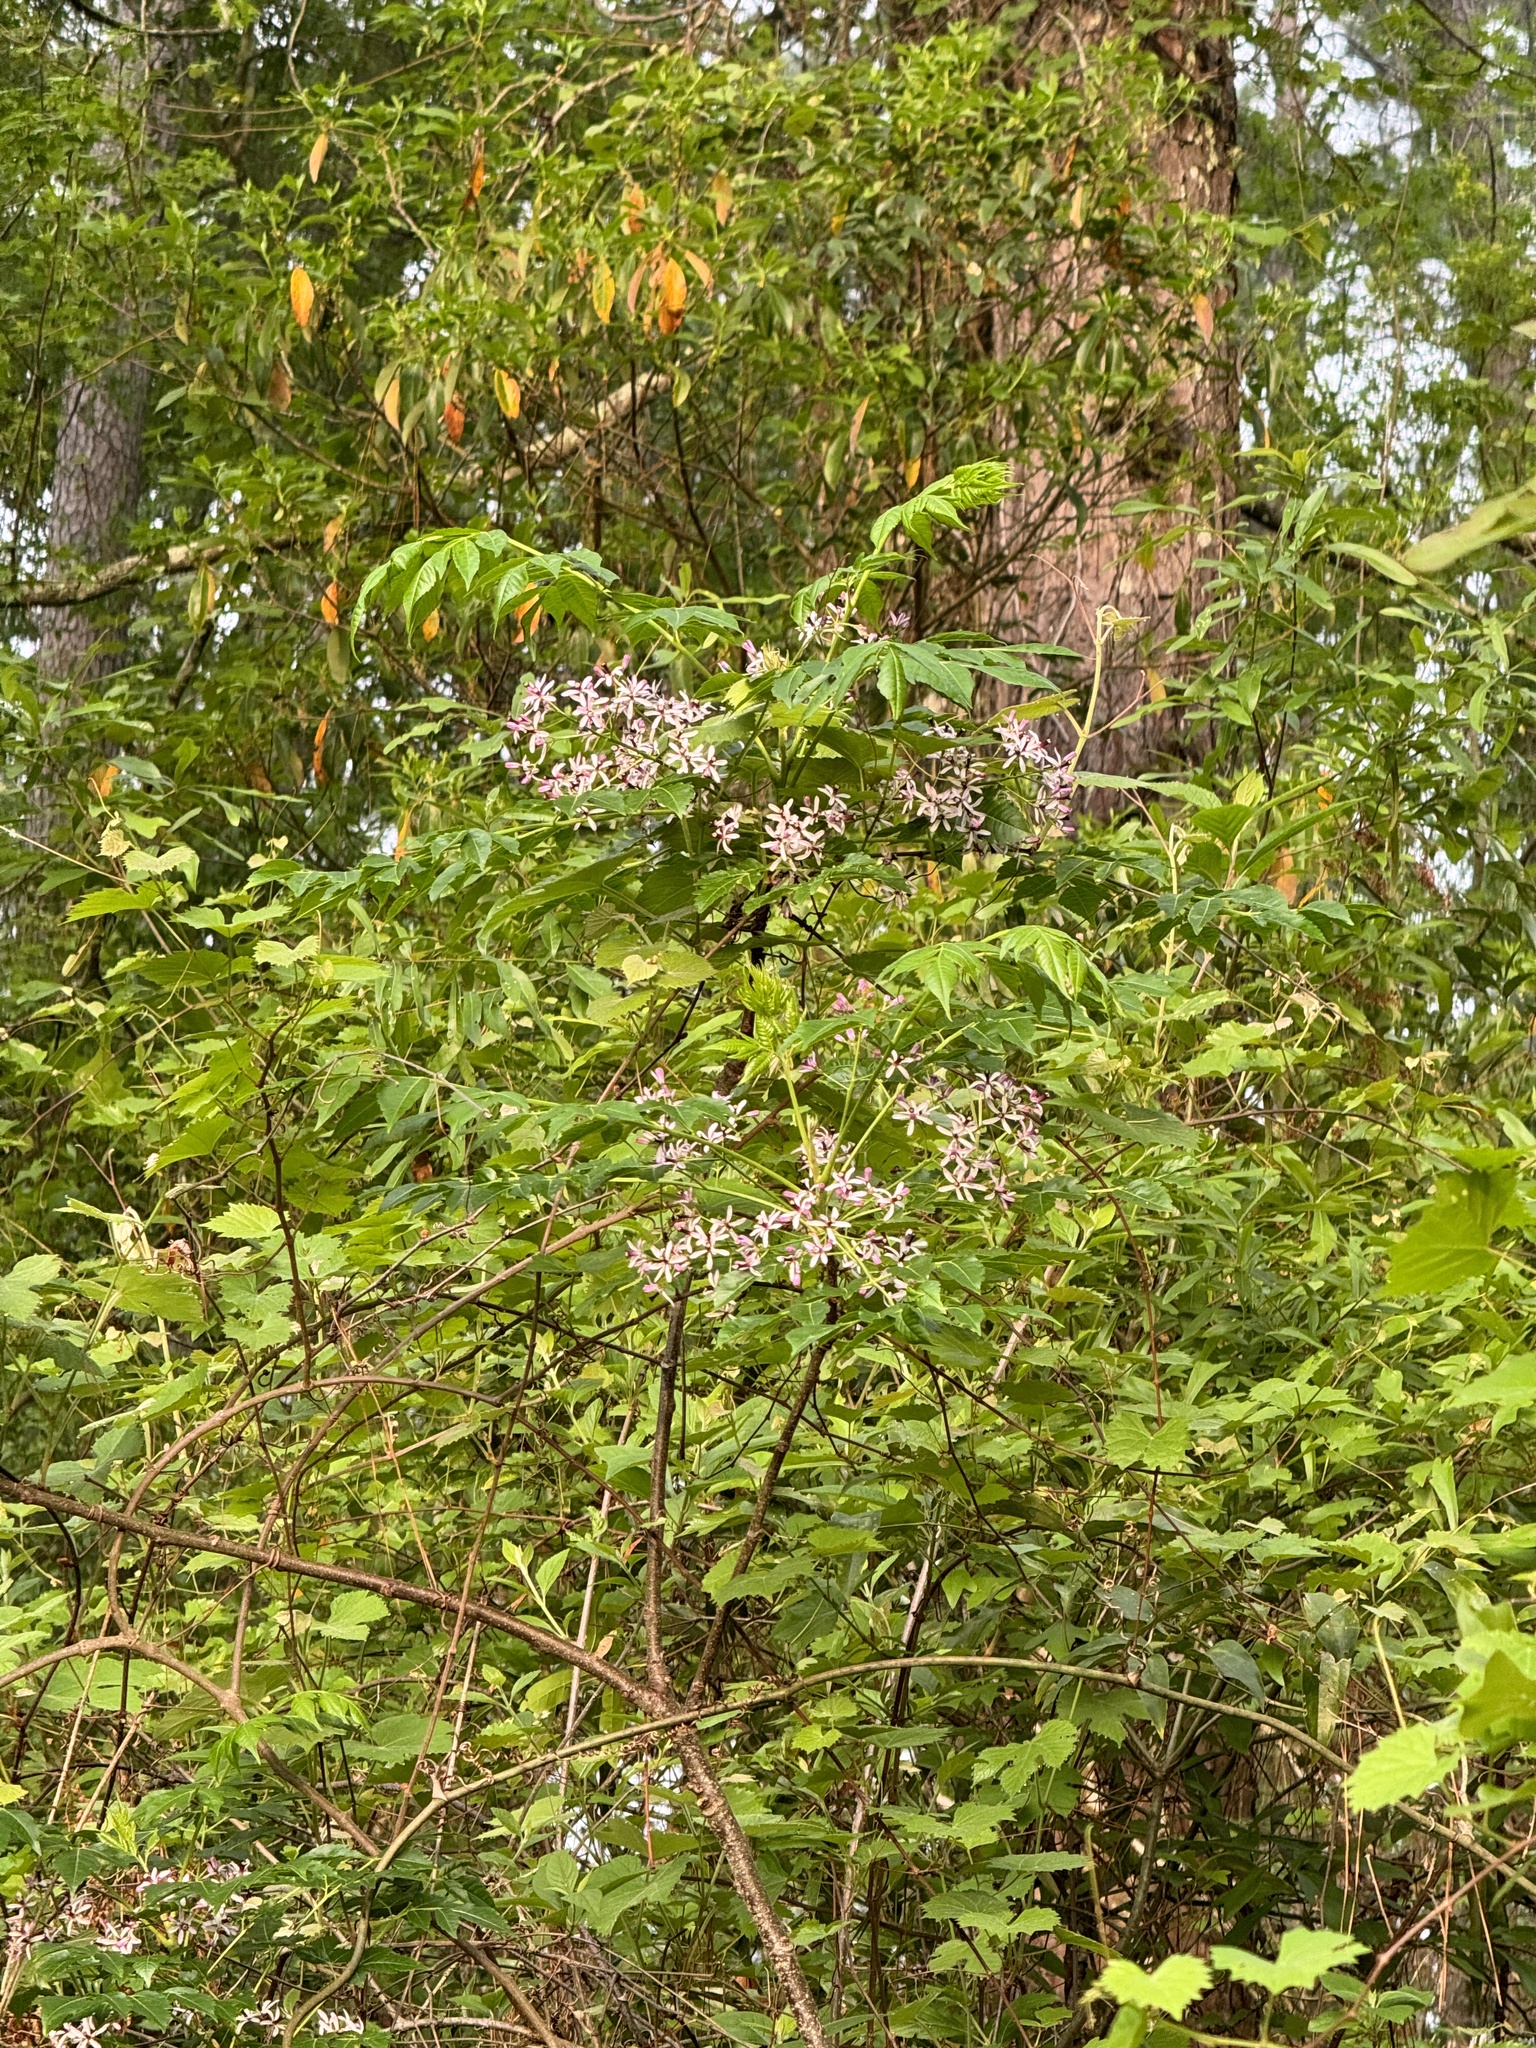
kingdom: Plantae
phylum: Tracheophyta
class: Magnoliopsida
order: Sapindales
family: Meliaceae
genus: Melia
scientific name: Melia azedarach
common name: Chinaberrytree
